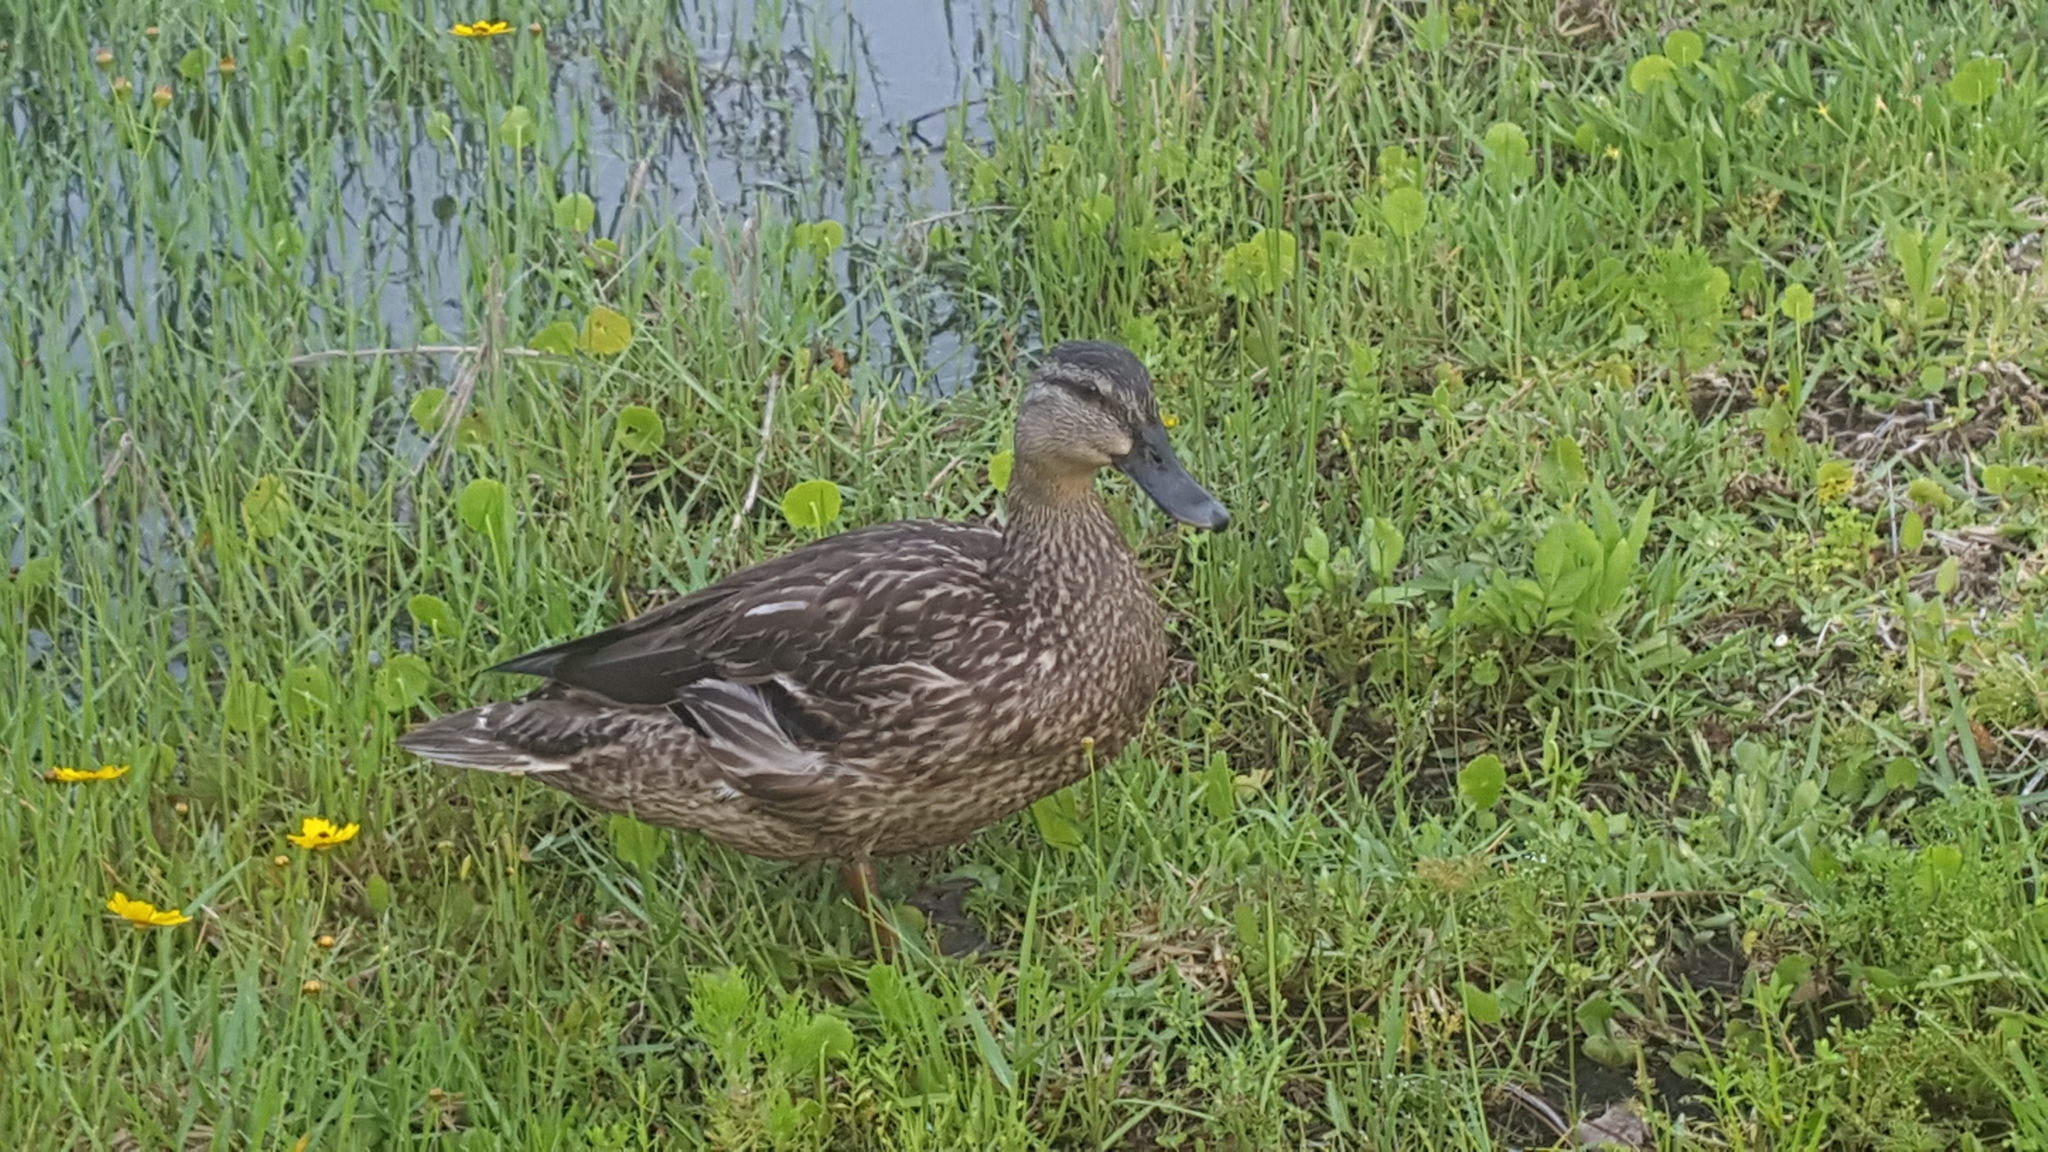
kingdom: Animalia
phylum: Chordata
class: Aves
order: Anseriformes
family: Anatidae
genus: Anas
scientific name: Anas
